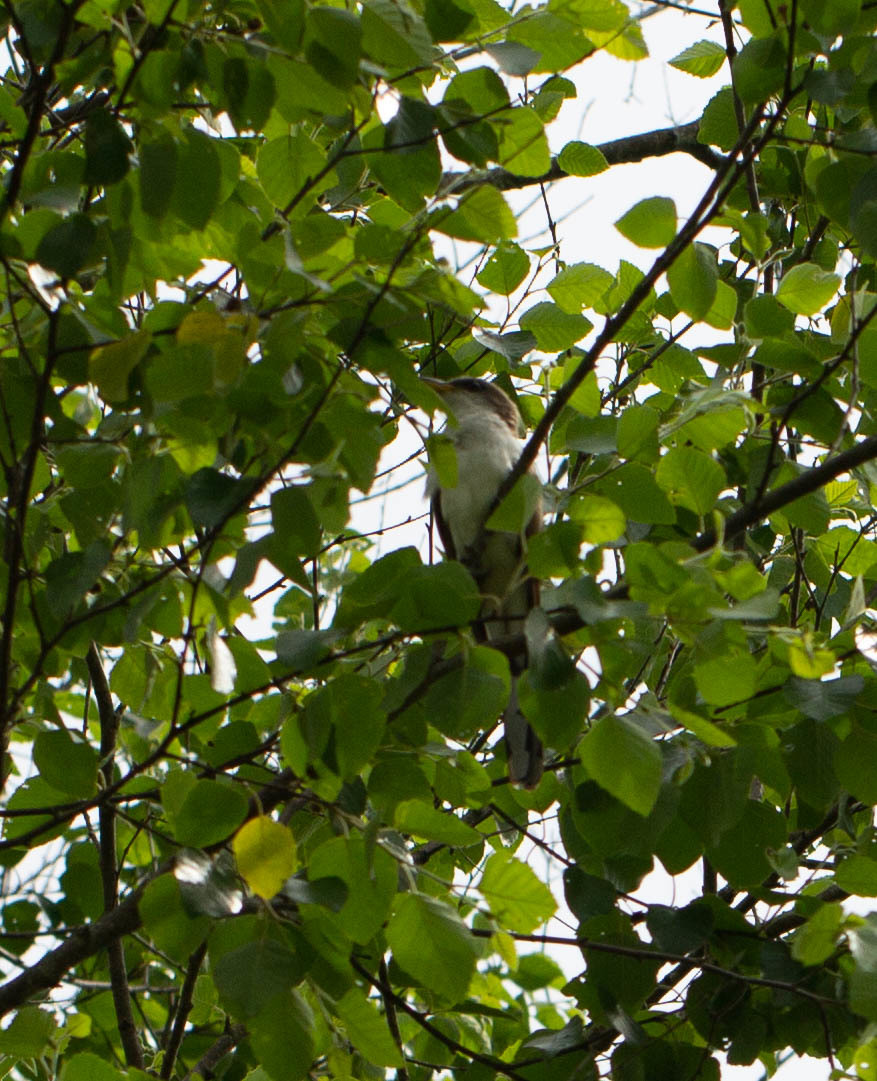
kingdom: Animalia
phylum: Chordata
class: Aves
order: Cuculiformes
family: Cuculidae
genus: Coccyzus
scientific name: Coccyzus americanus
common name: Yellow-billed cuckoo
